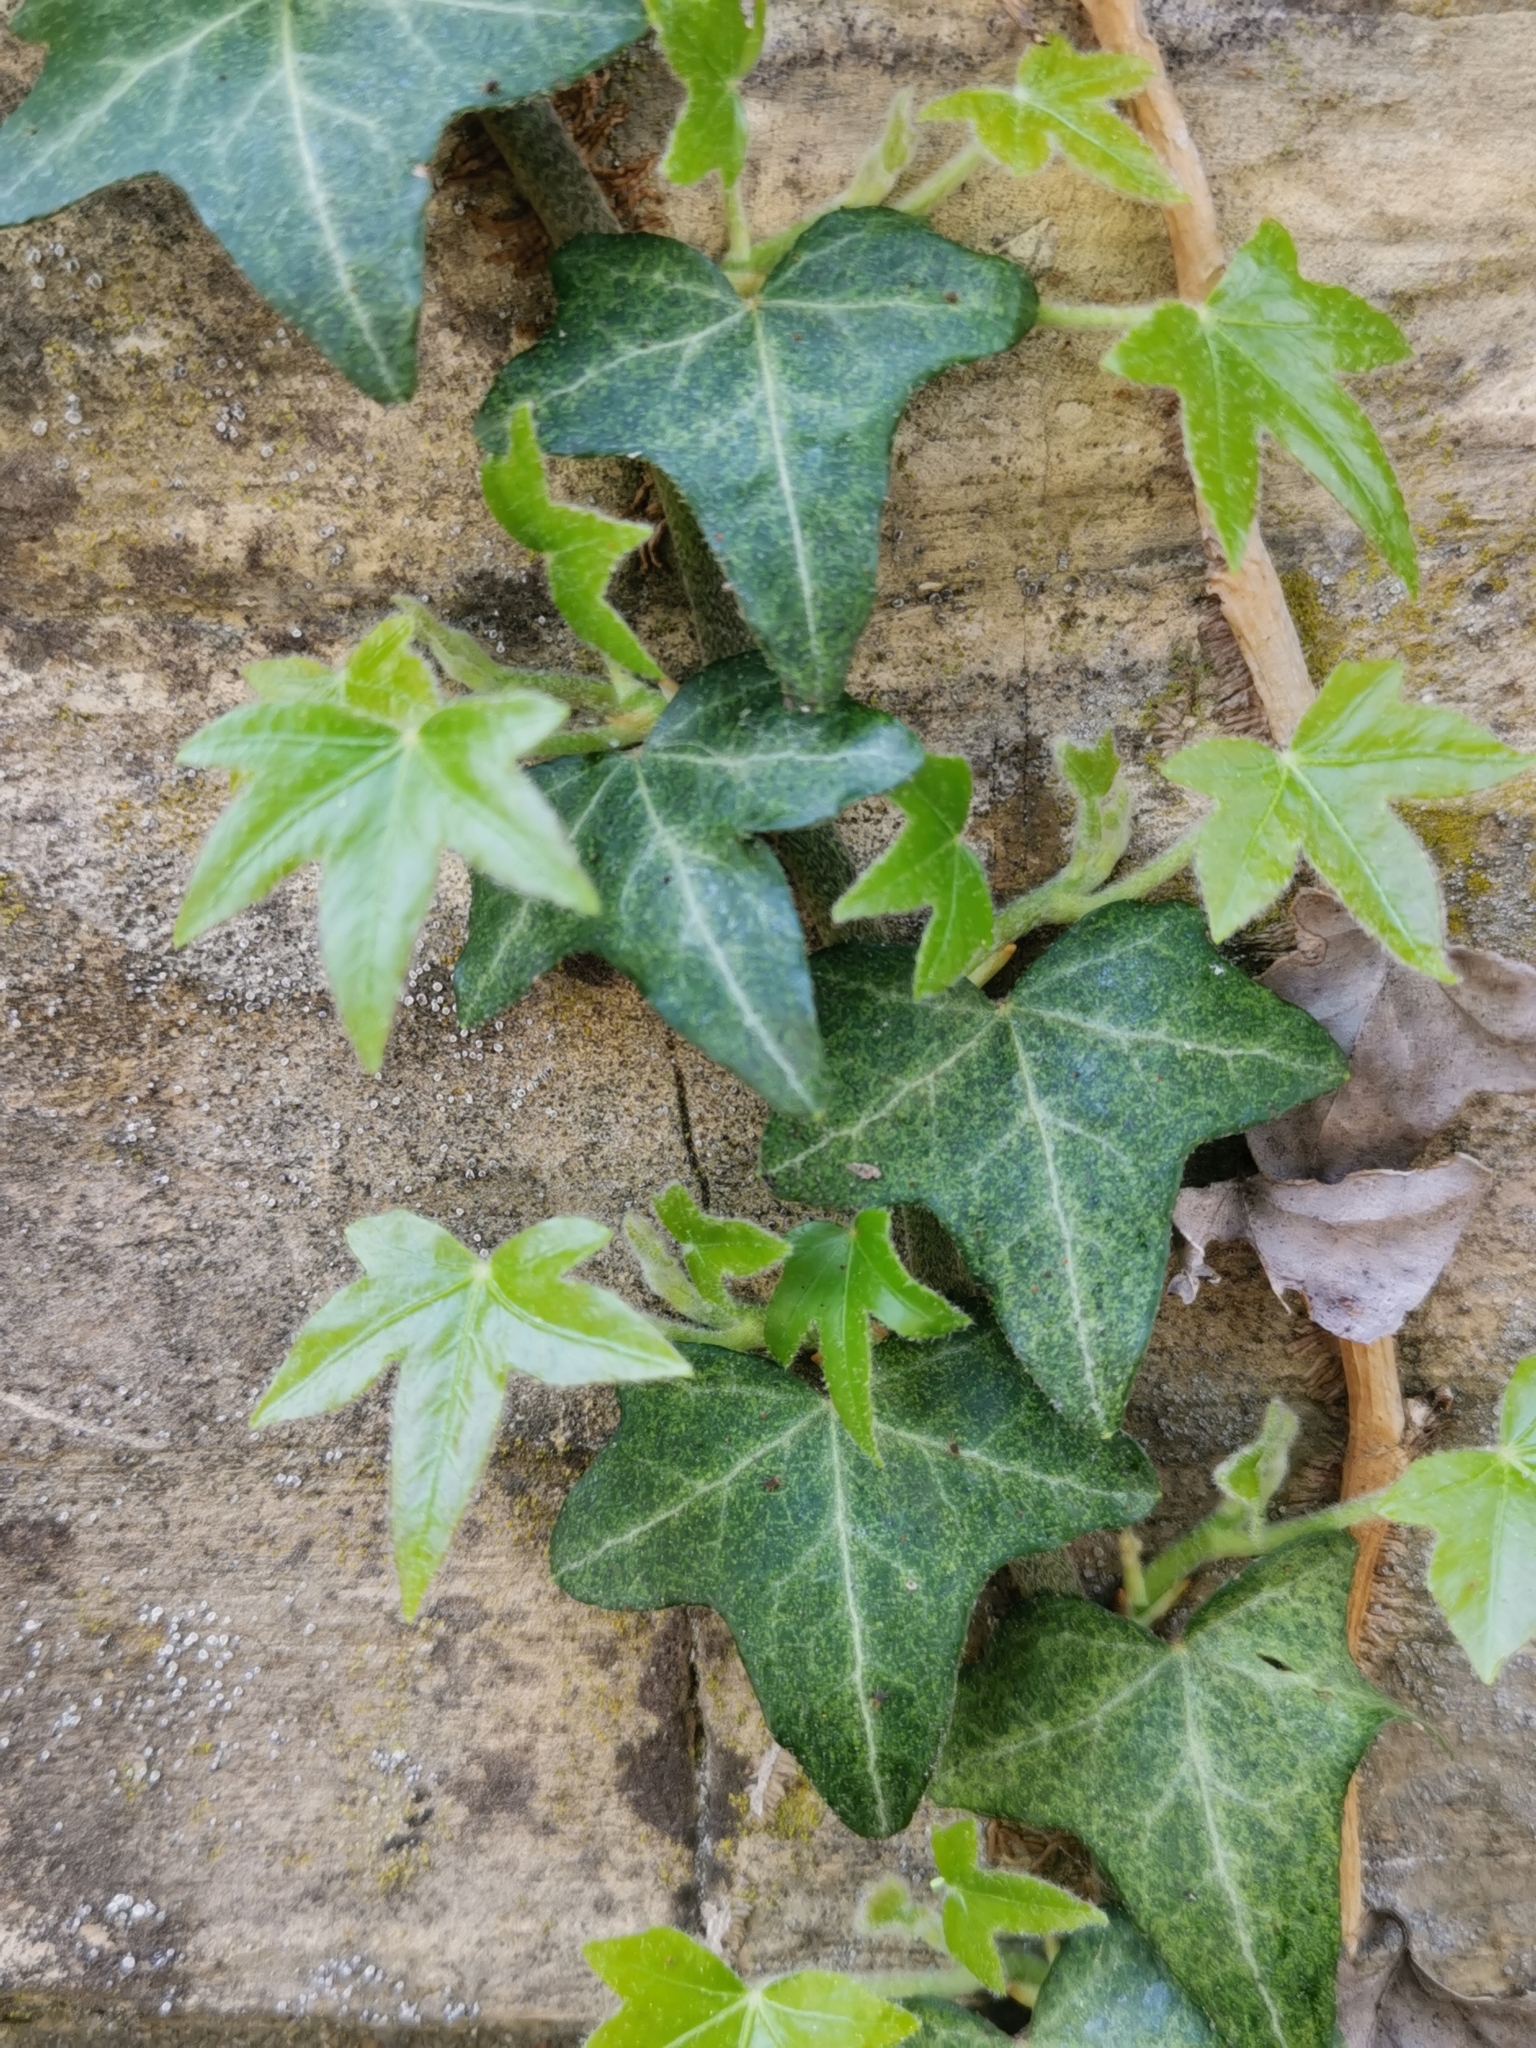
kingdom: Plantae
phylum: Tracheophyta
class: Magnoliopsida
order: Apiales
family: Araliaceae
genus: Hedera
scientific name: Hedera helix
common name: Ivy
